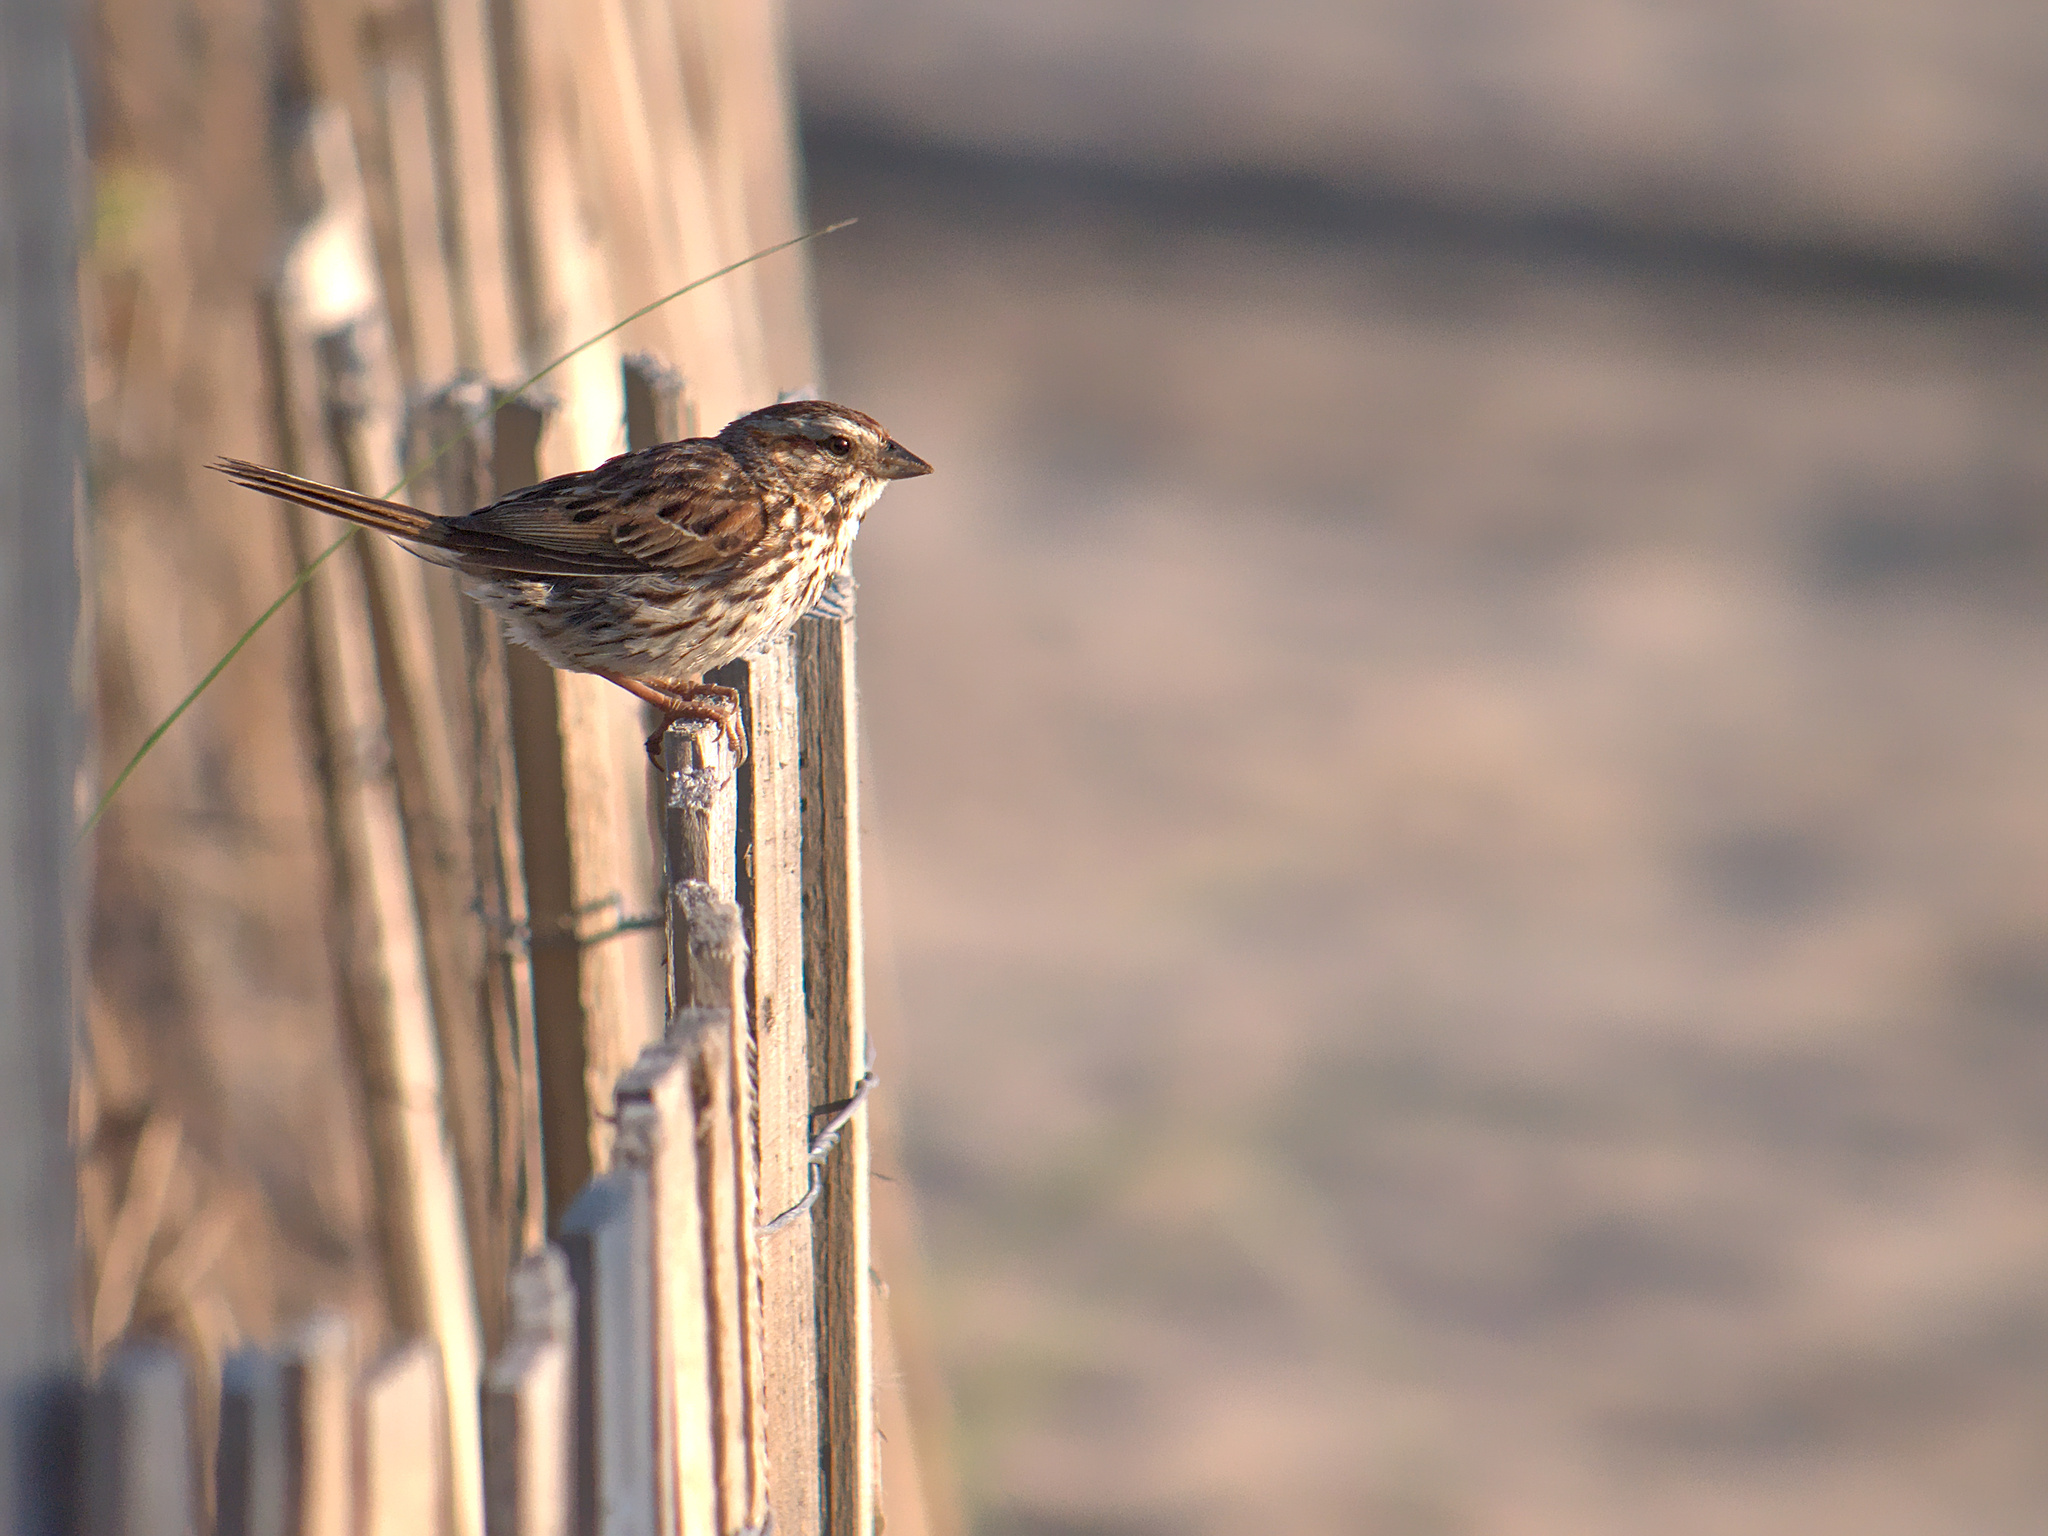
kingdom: Animalia
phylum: Chordata
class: Aves
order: Passeriformes
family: Passerellidae
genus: Melospiza
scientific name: Melospiza melodia
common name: Song sparrow
